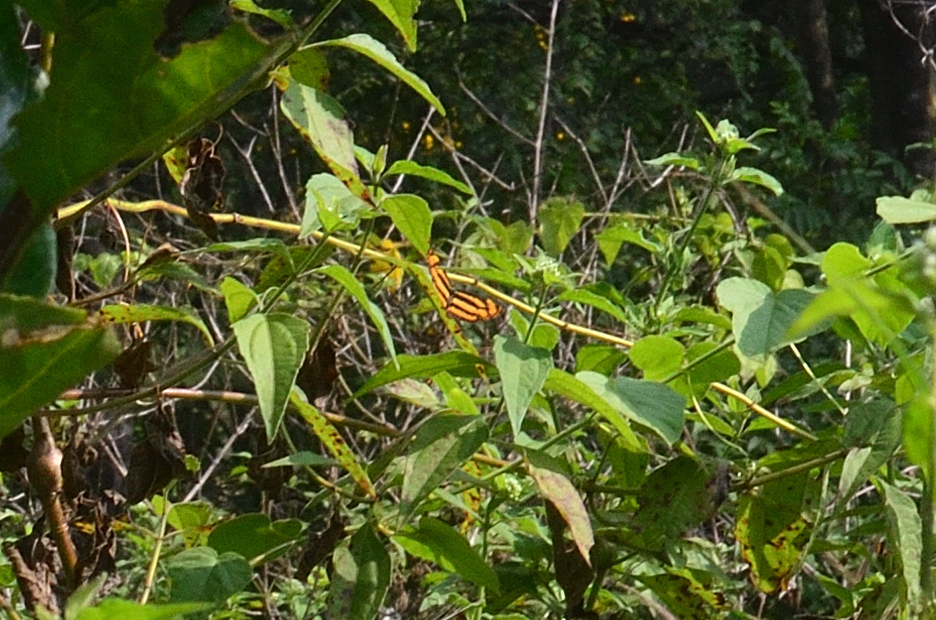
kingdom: Animalia
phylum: Arthropoda
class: Insecta
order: Lepidoptera
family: Nymphalidae
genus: Pantoporia
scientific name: Pantoporia hordonia
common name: Common lascar
